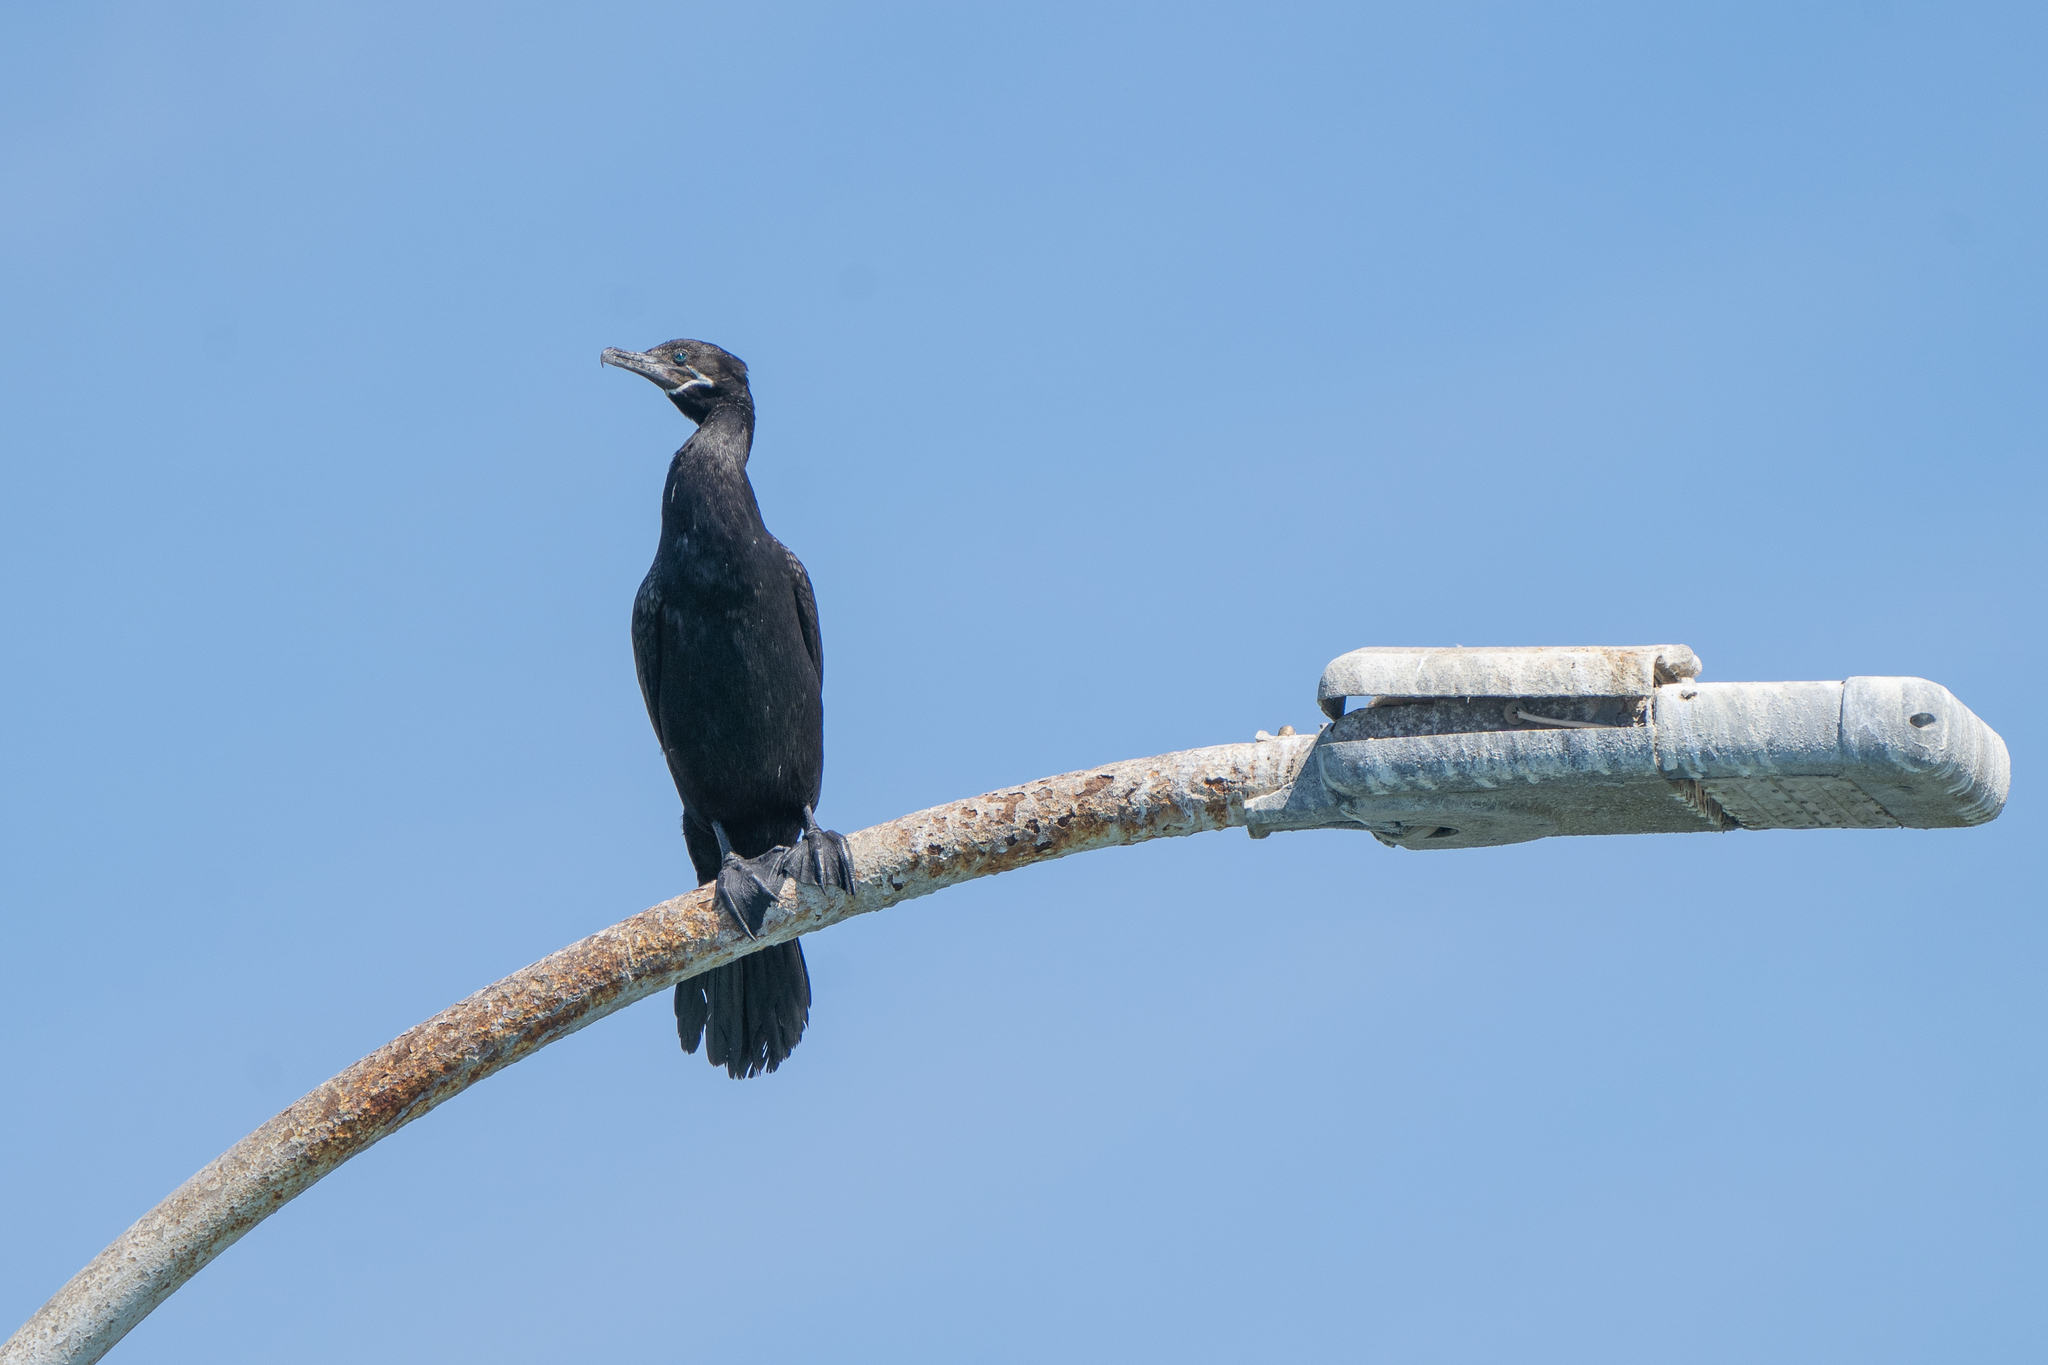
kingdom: Animalia
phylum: Chordata
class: Aves
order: Suliformes
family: Phalacrocoracidae
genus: Phalacrocorax
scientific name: Phalacrocorax brasilianus
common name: Neotropic cormorant
